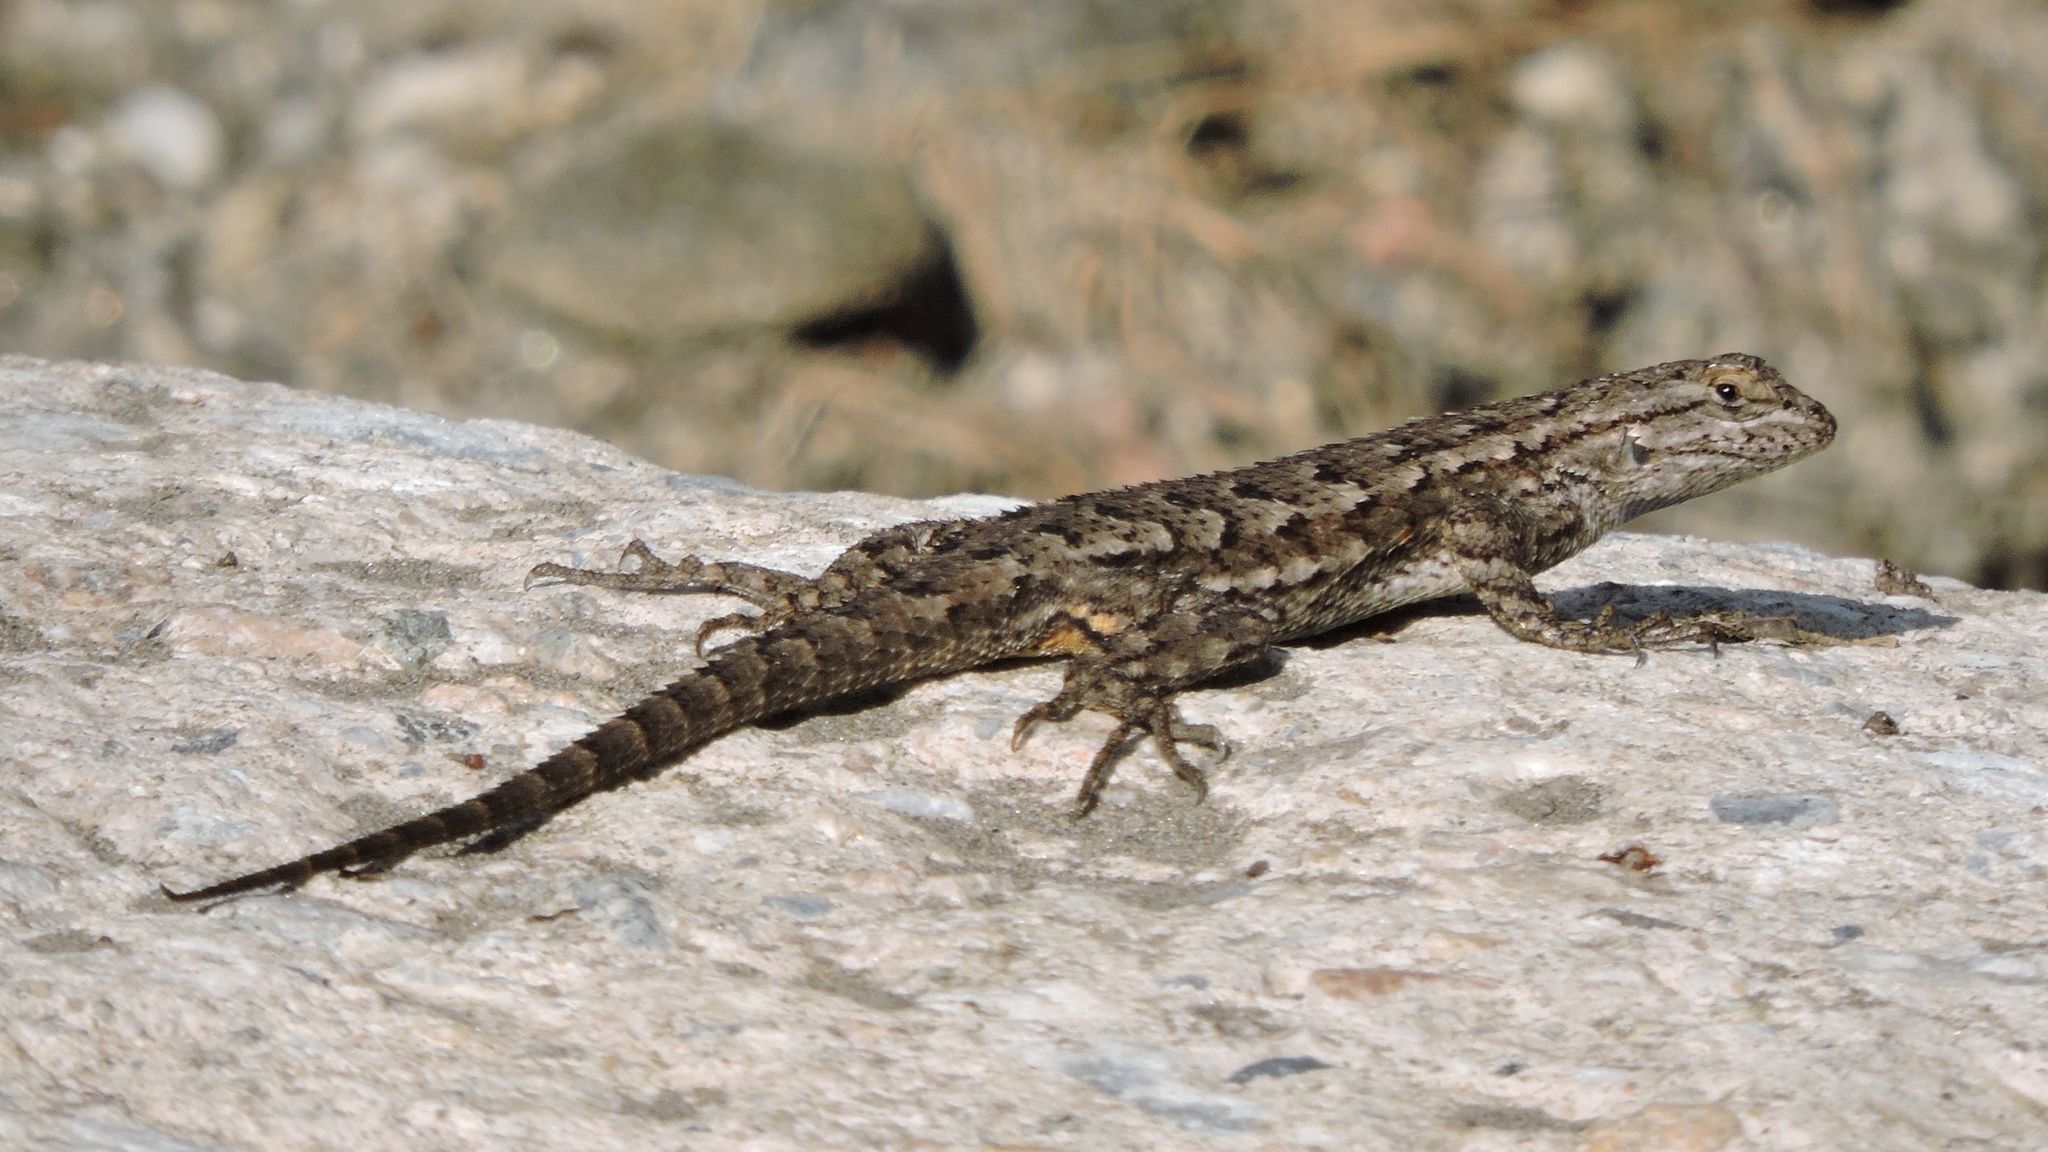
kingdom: Animalia
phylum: Chordata
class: Squamata
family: Phrynosomatidae
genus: Sceloporus
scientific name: Sceloporus occidentalis
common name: Western fence lizard
